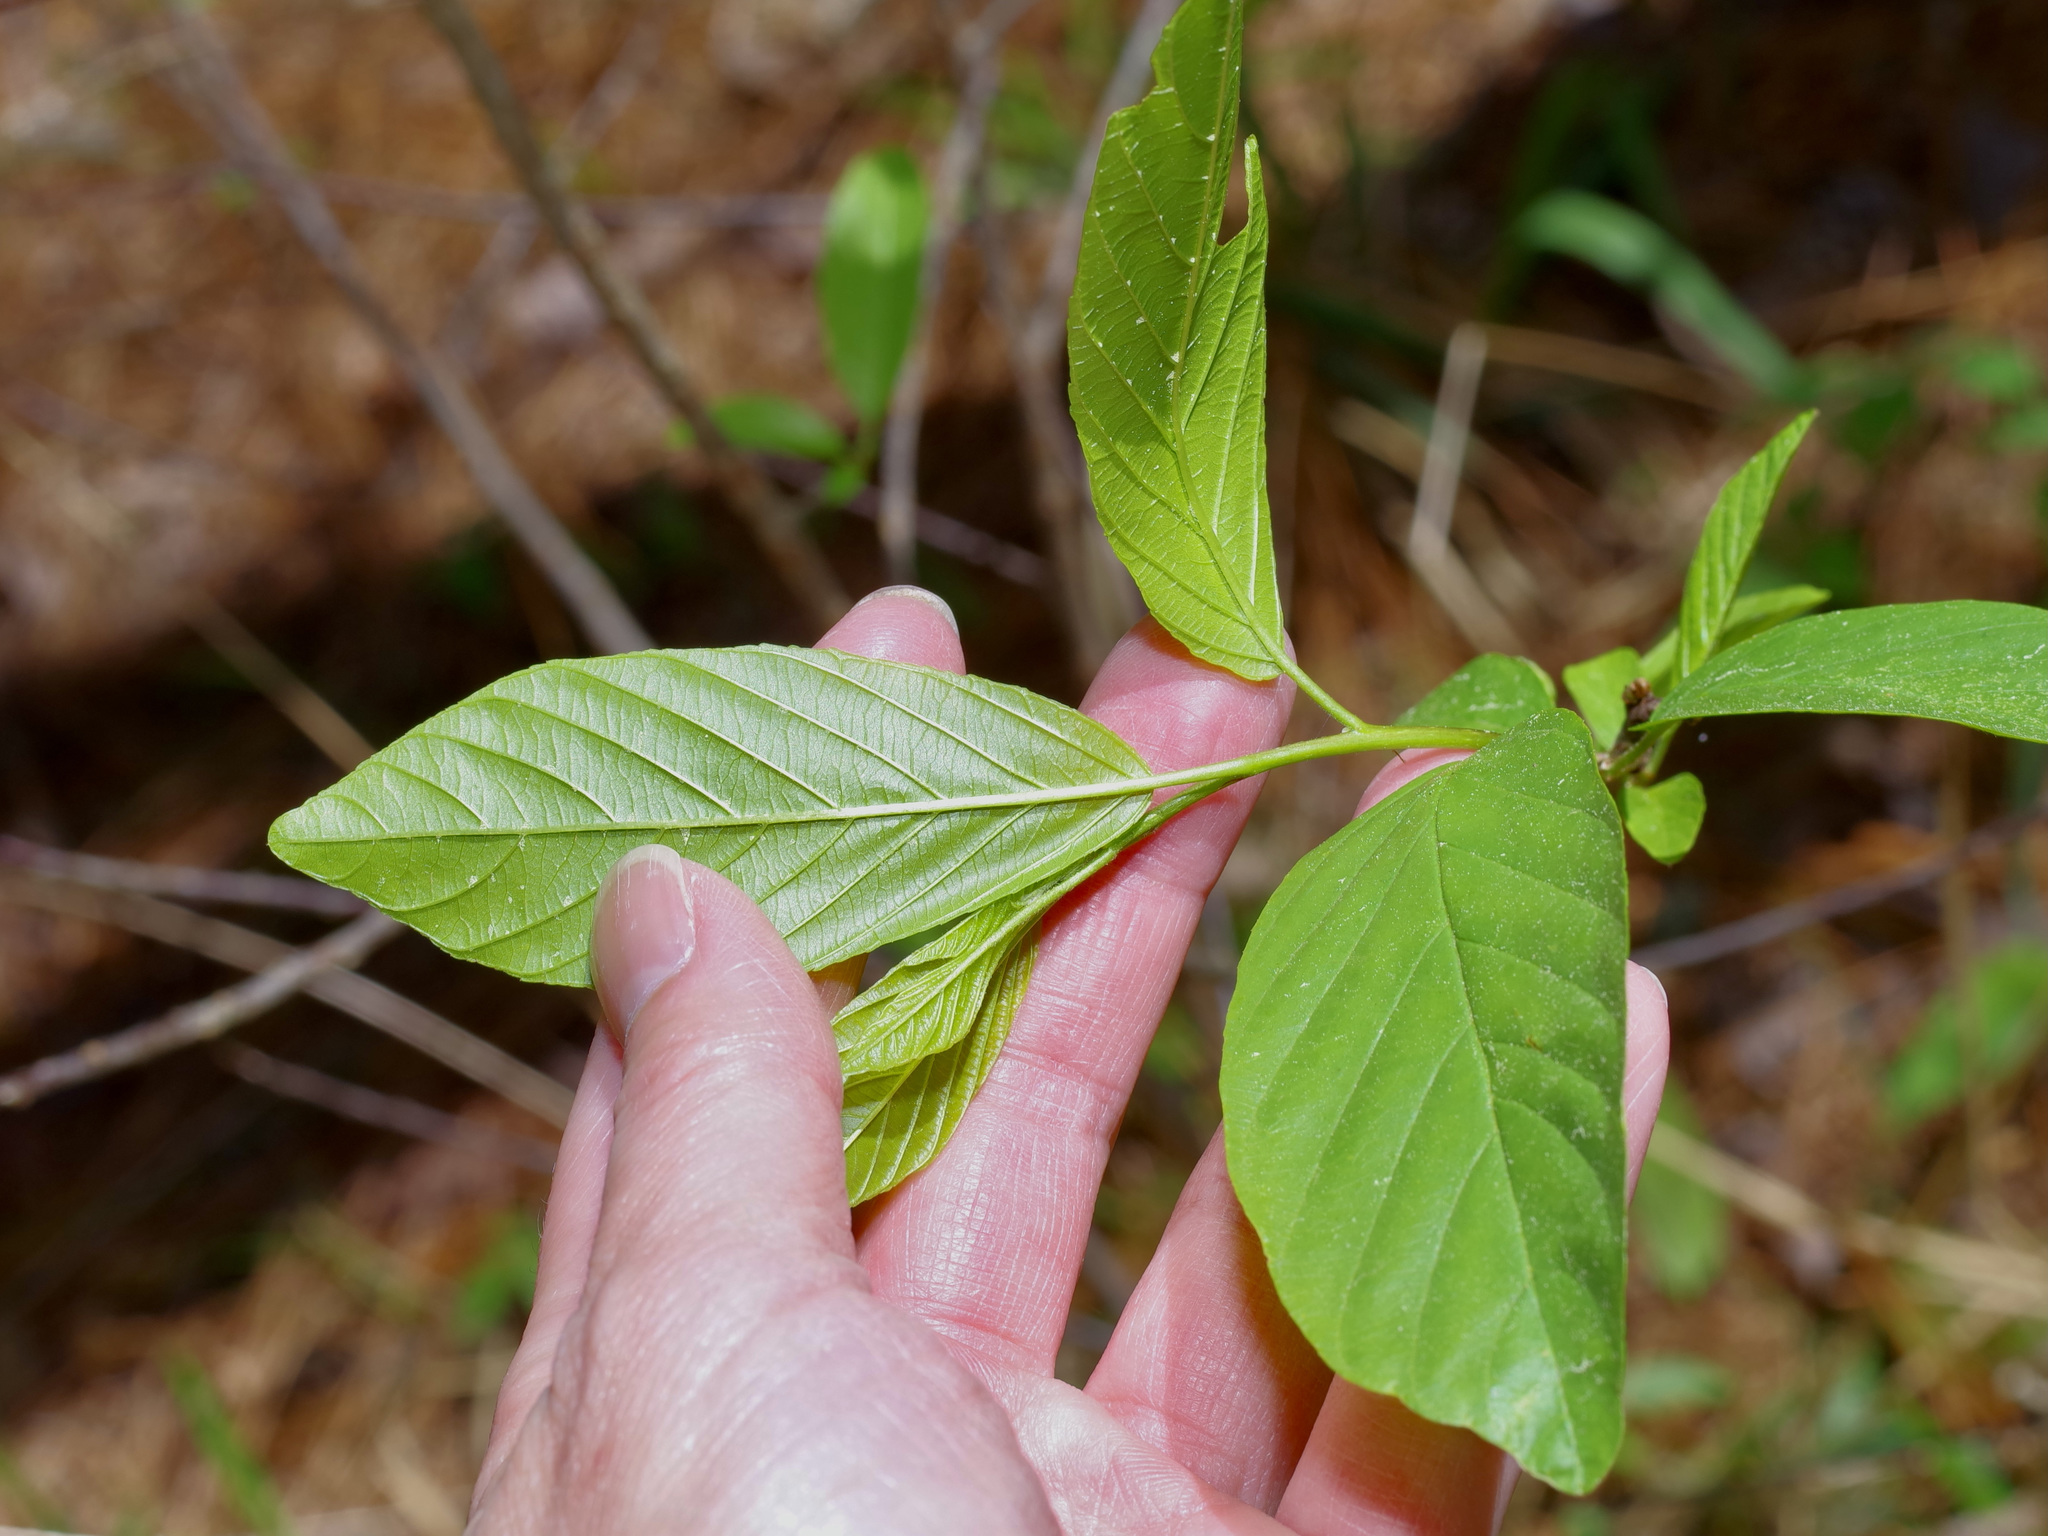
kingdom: Plantae
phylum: Tracheophyta
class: Magnoliopsida
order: Rosales
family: Rhamnaceae
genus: Frangula
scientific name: Frangula caroliniana
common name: Carolina buckthorn
